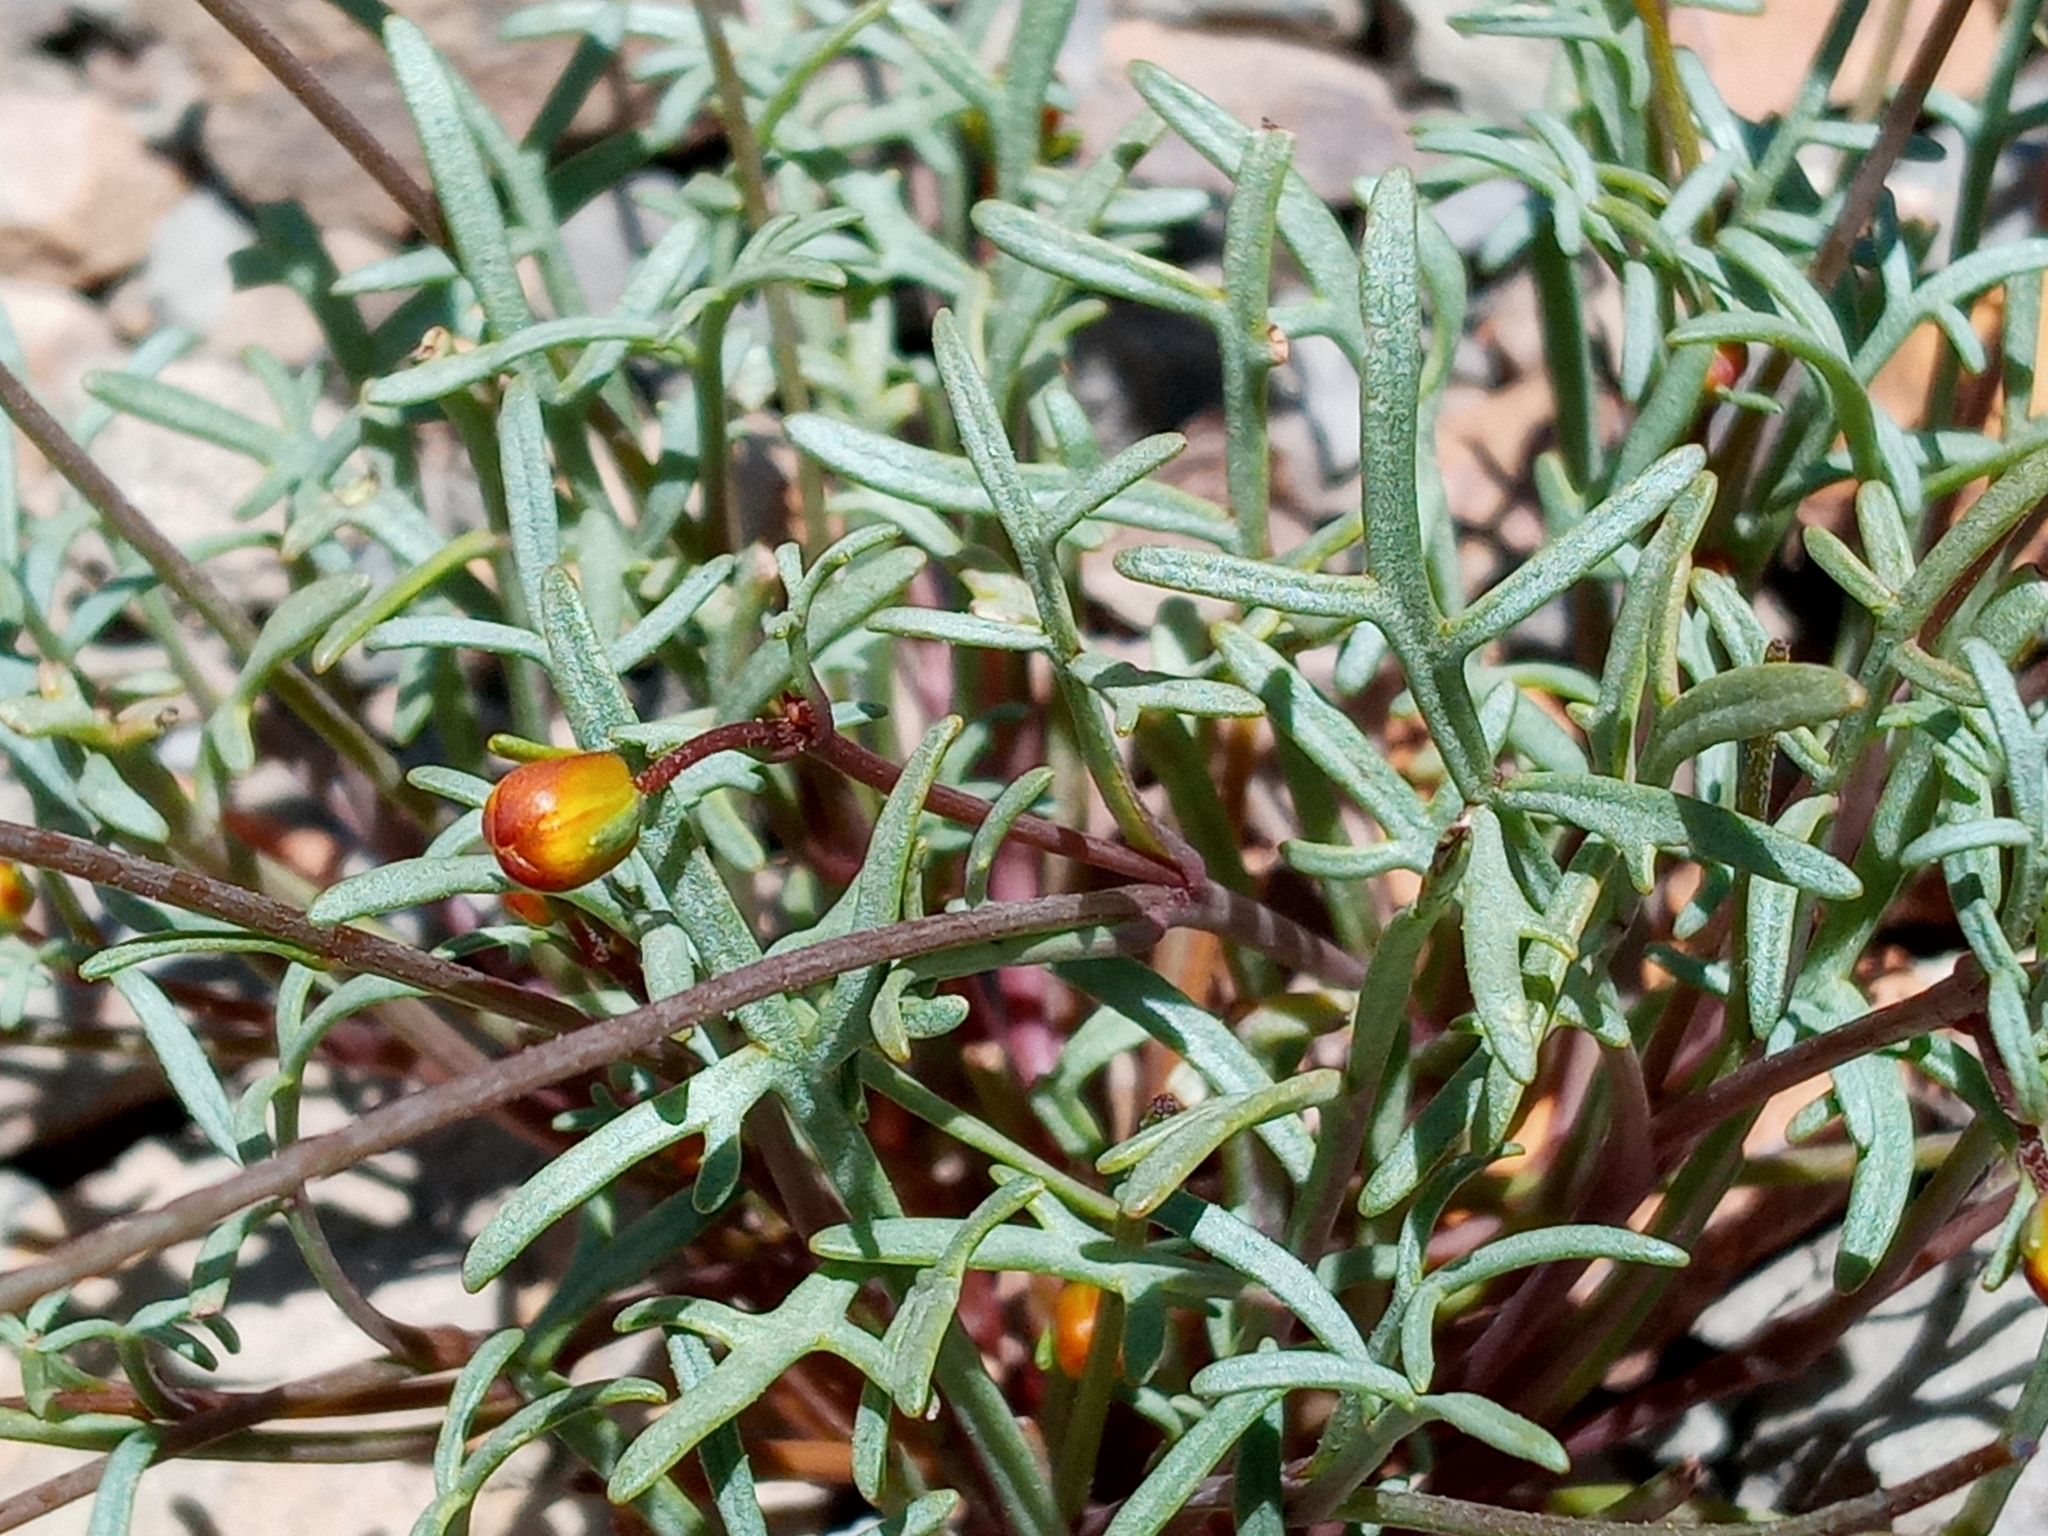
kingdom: Plantae
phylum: Tracheophyta
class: Magnoliopsida
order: Asterales
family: Asteraceae
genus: Coreopsis
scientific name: Coreopsis bigelovii
